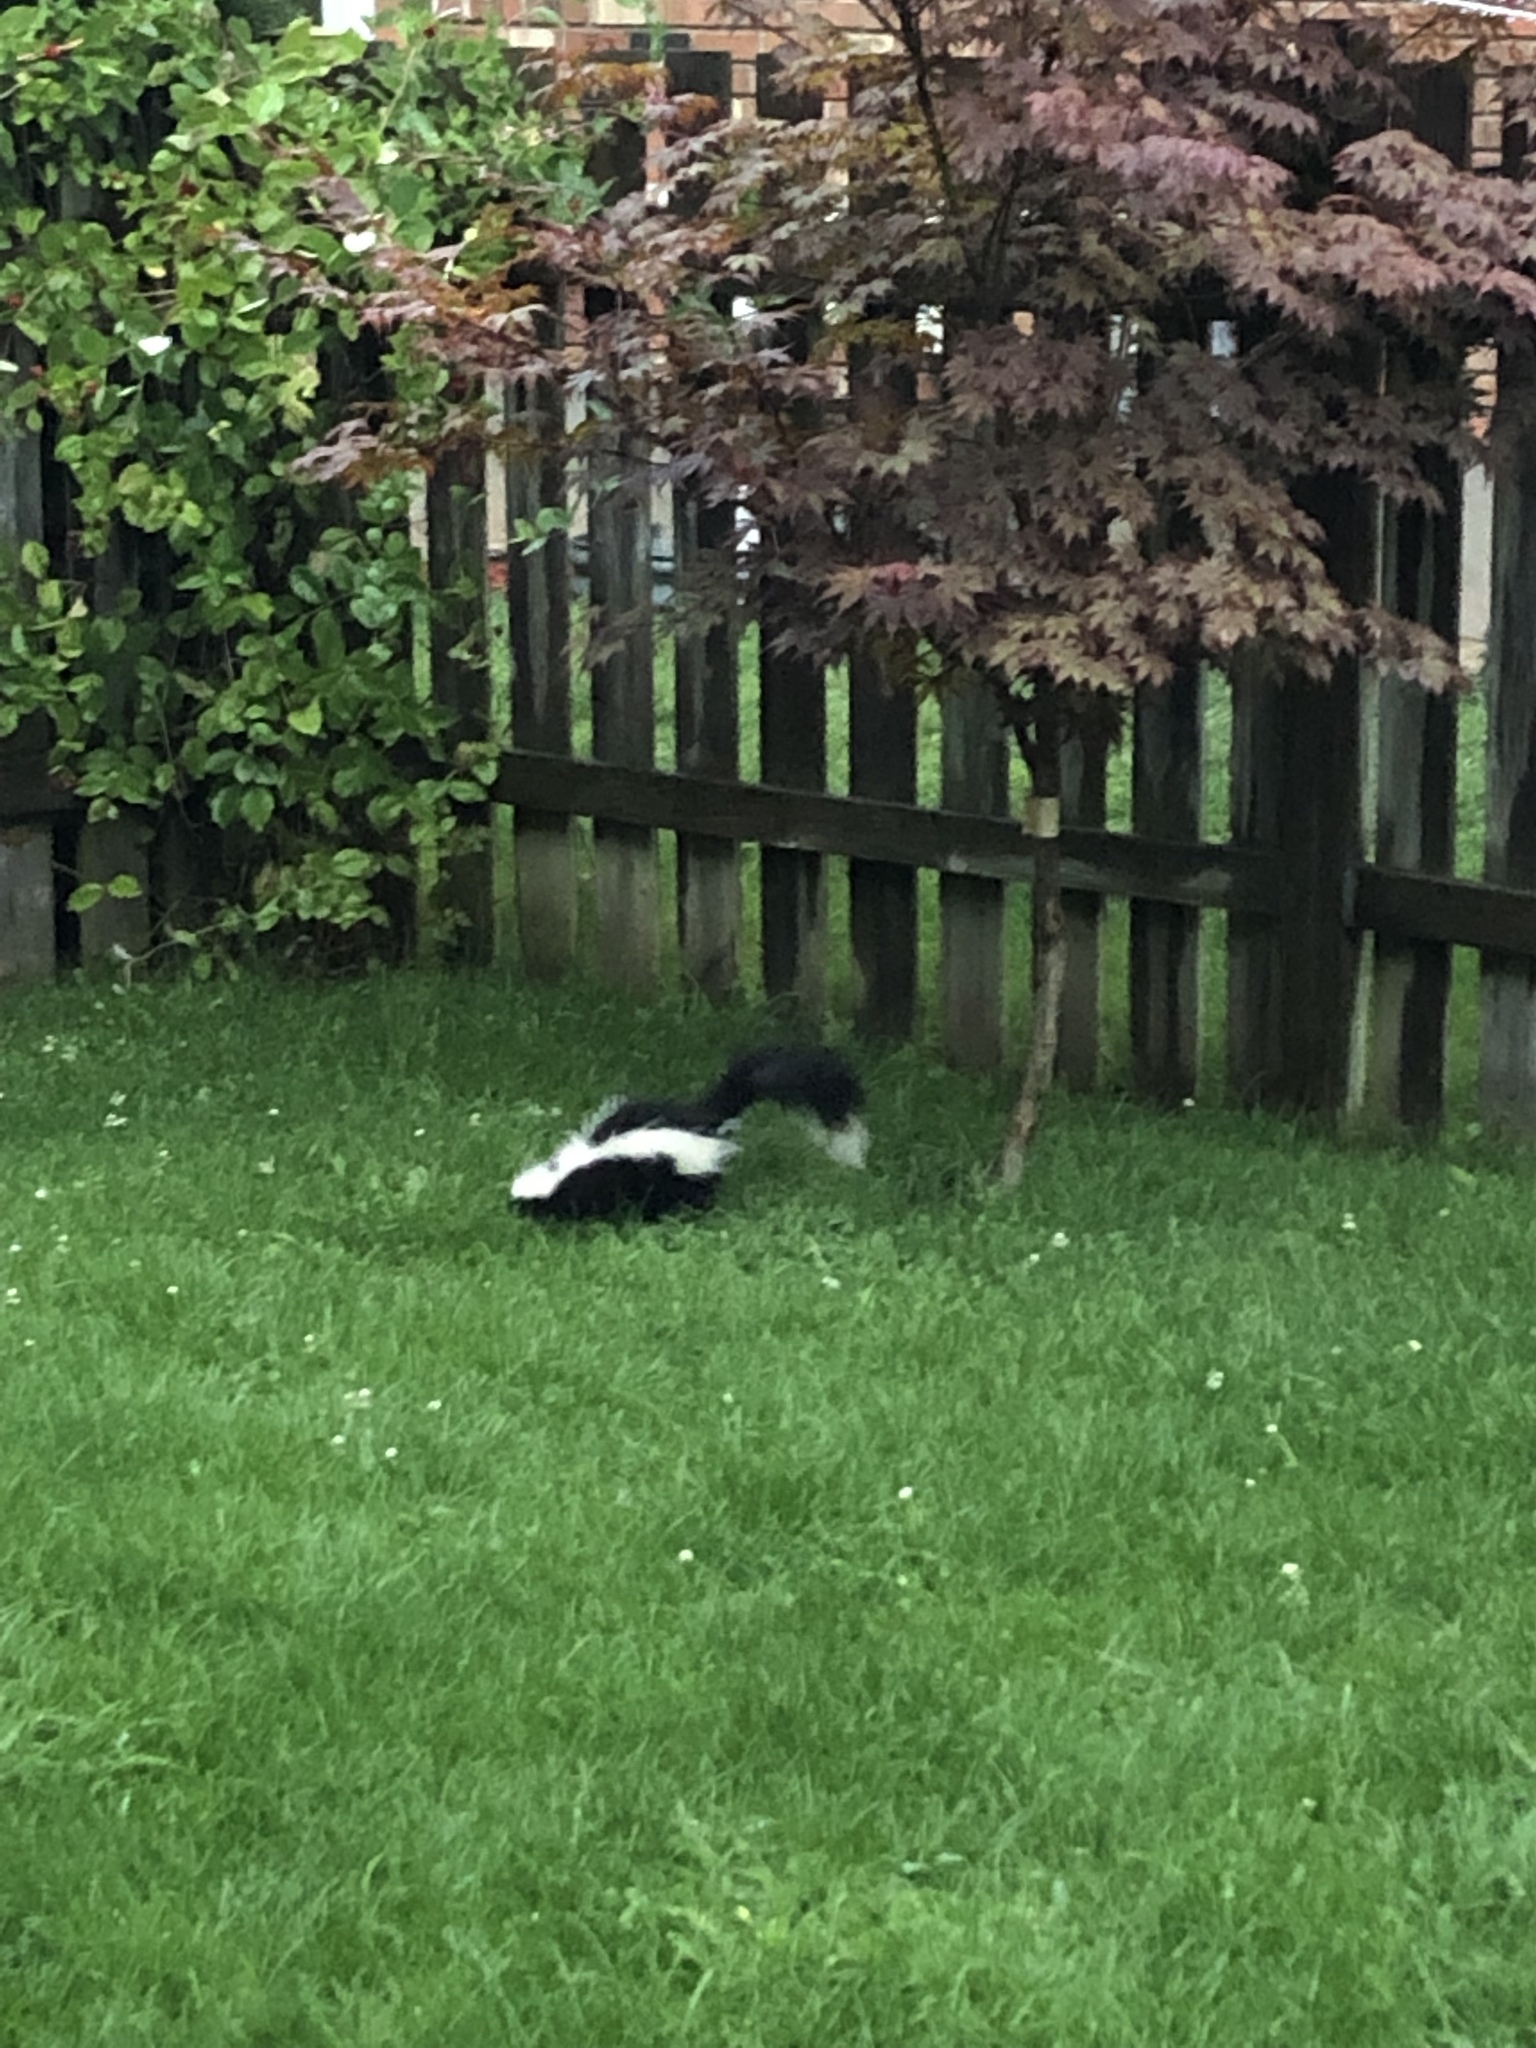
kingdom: Animalia
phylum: Chordata
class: Mammalia
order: Carnivora
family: Mephitidae
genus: Mephitis
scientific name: Mephitis mephitis
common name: Striped skunk
